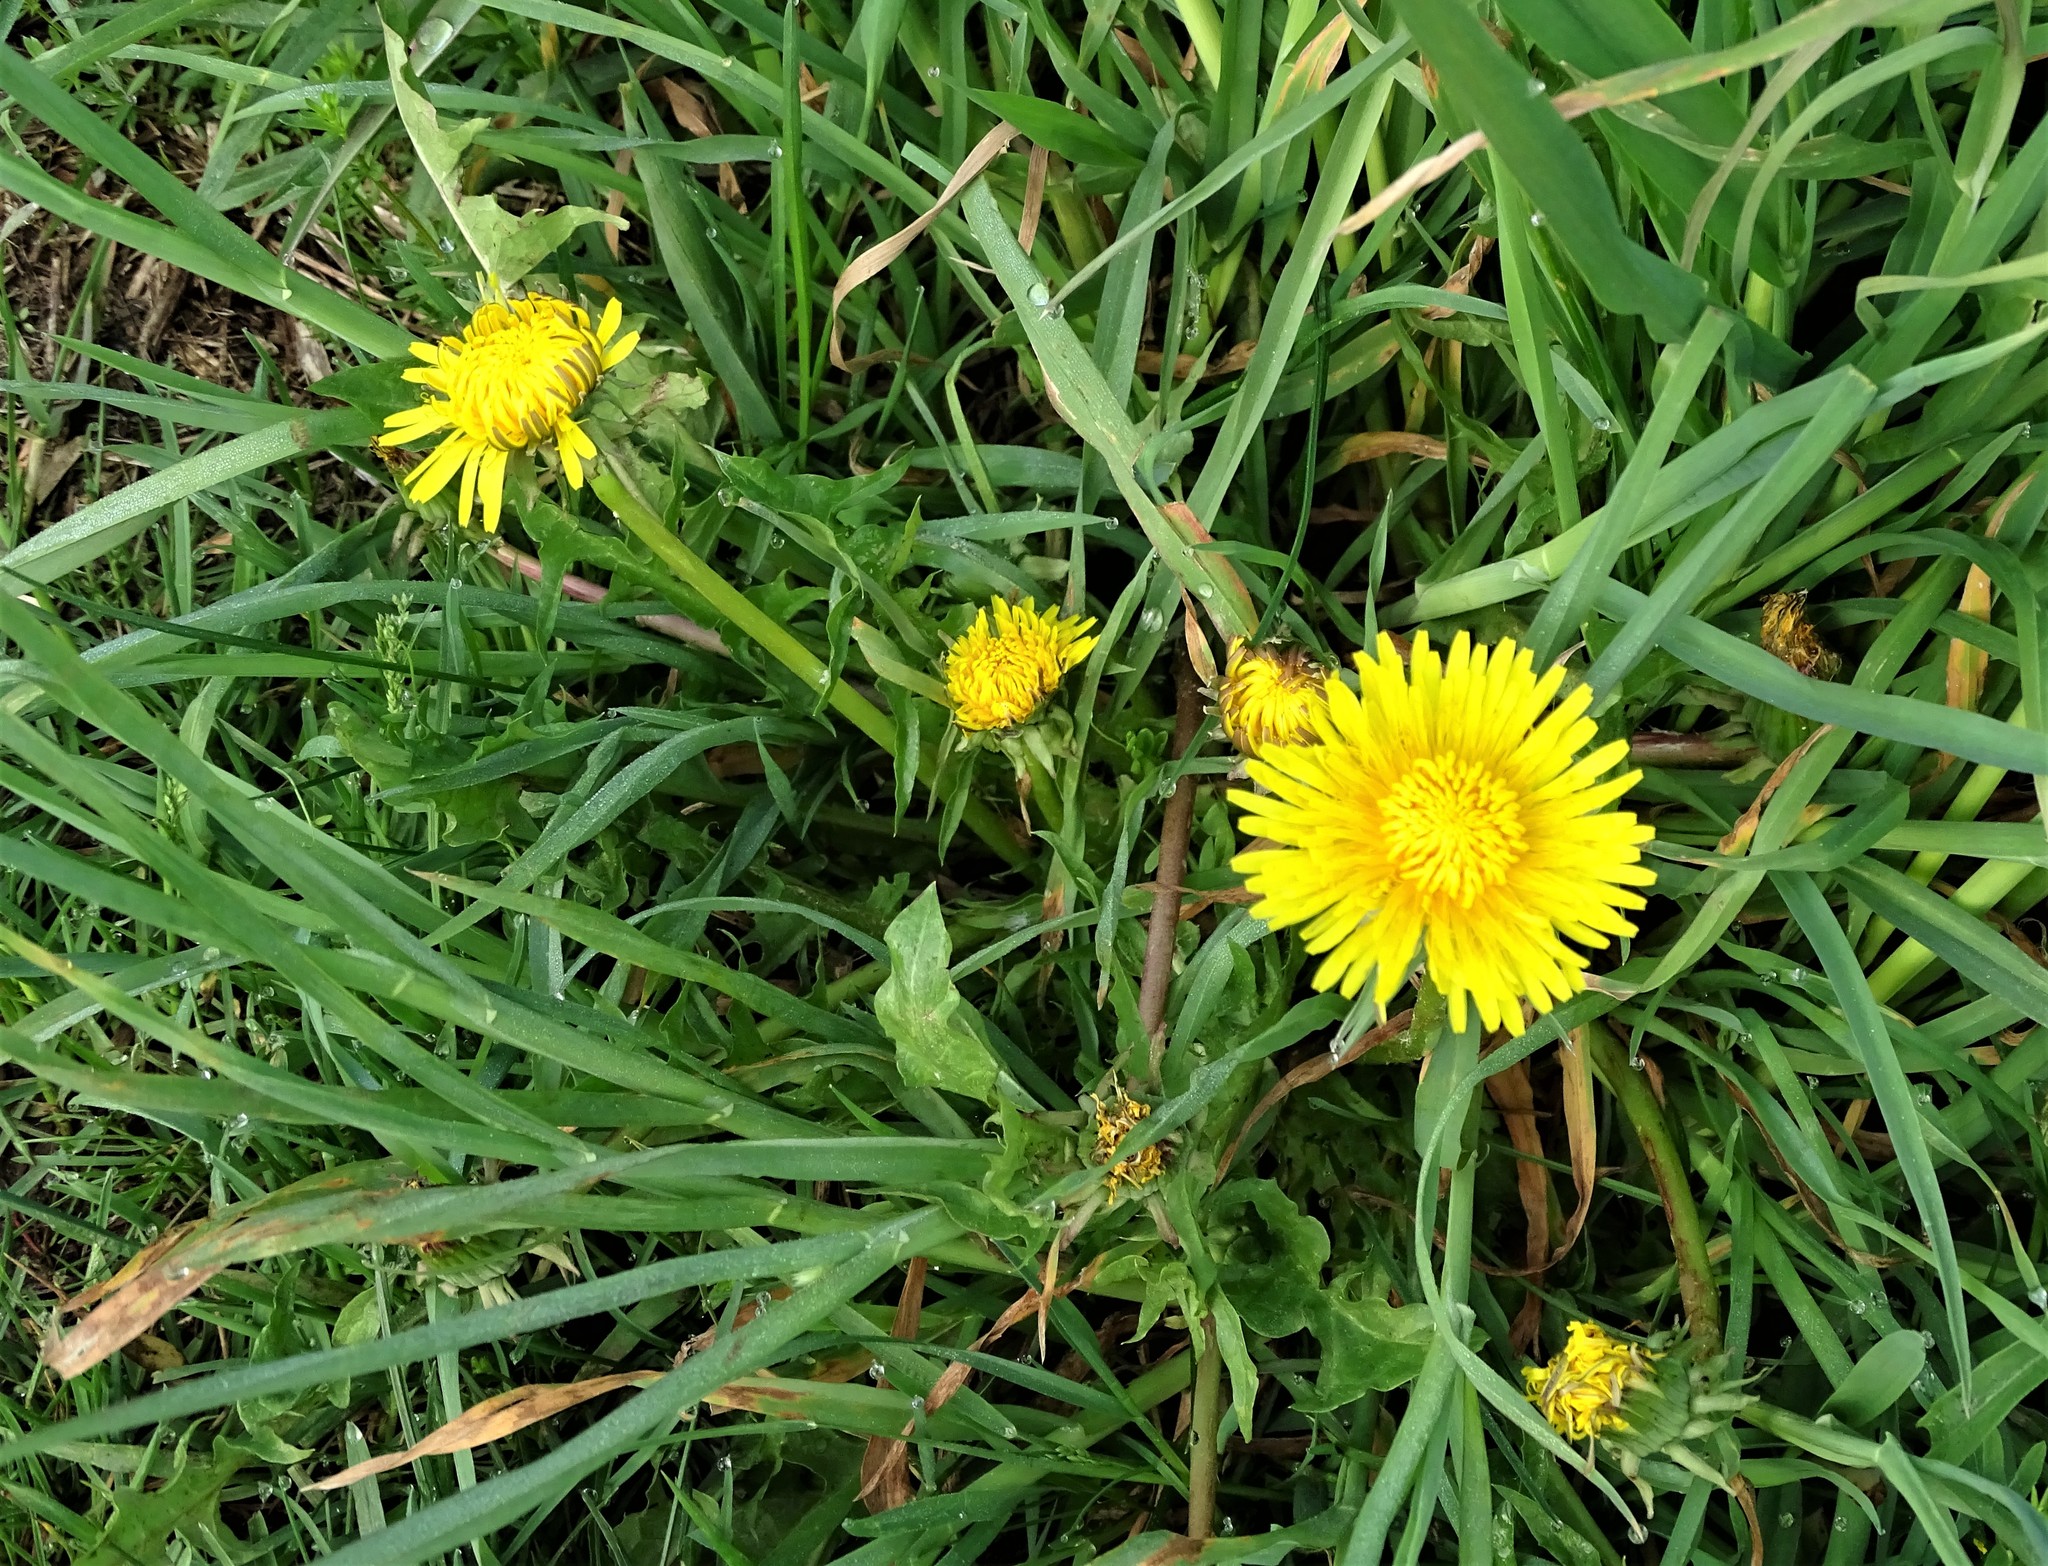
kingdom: Plantae
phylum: Tracheophyta
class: Magnoliopsida
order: Asterales
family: Asteraceae
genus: Taraxacum
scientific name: Taraxacum officinale
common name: Common dandelion
